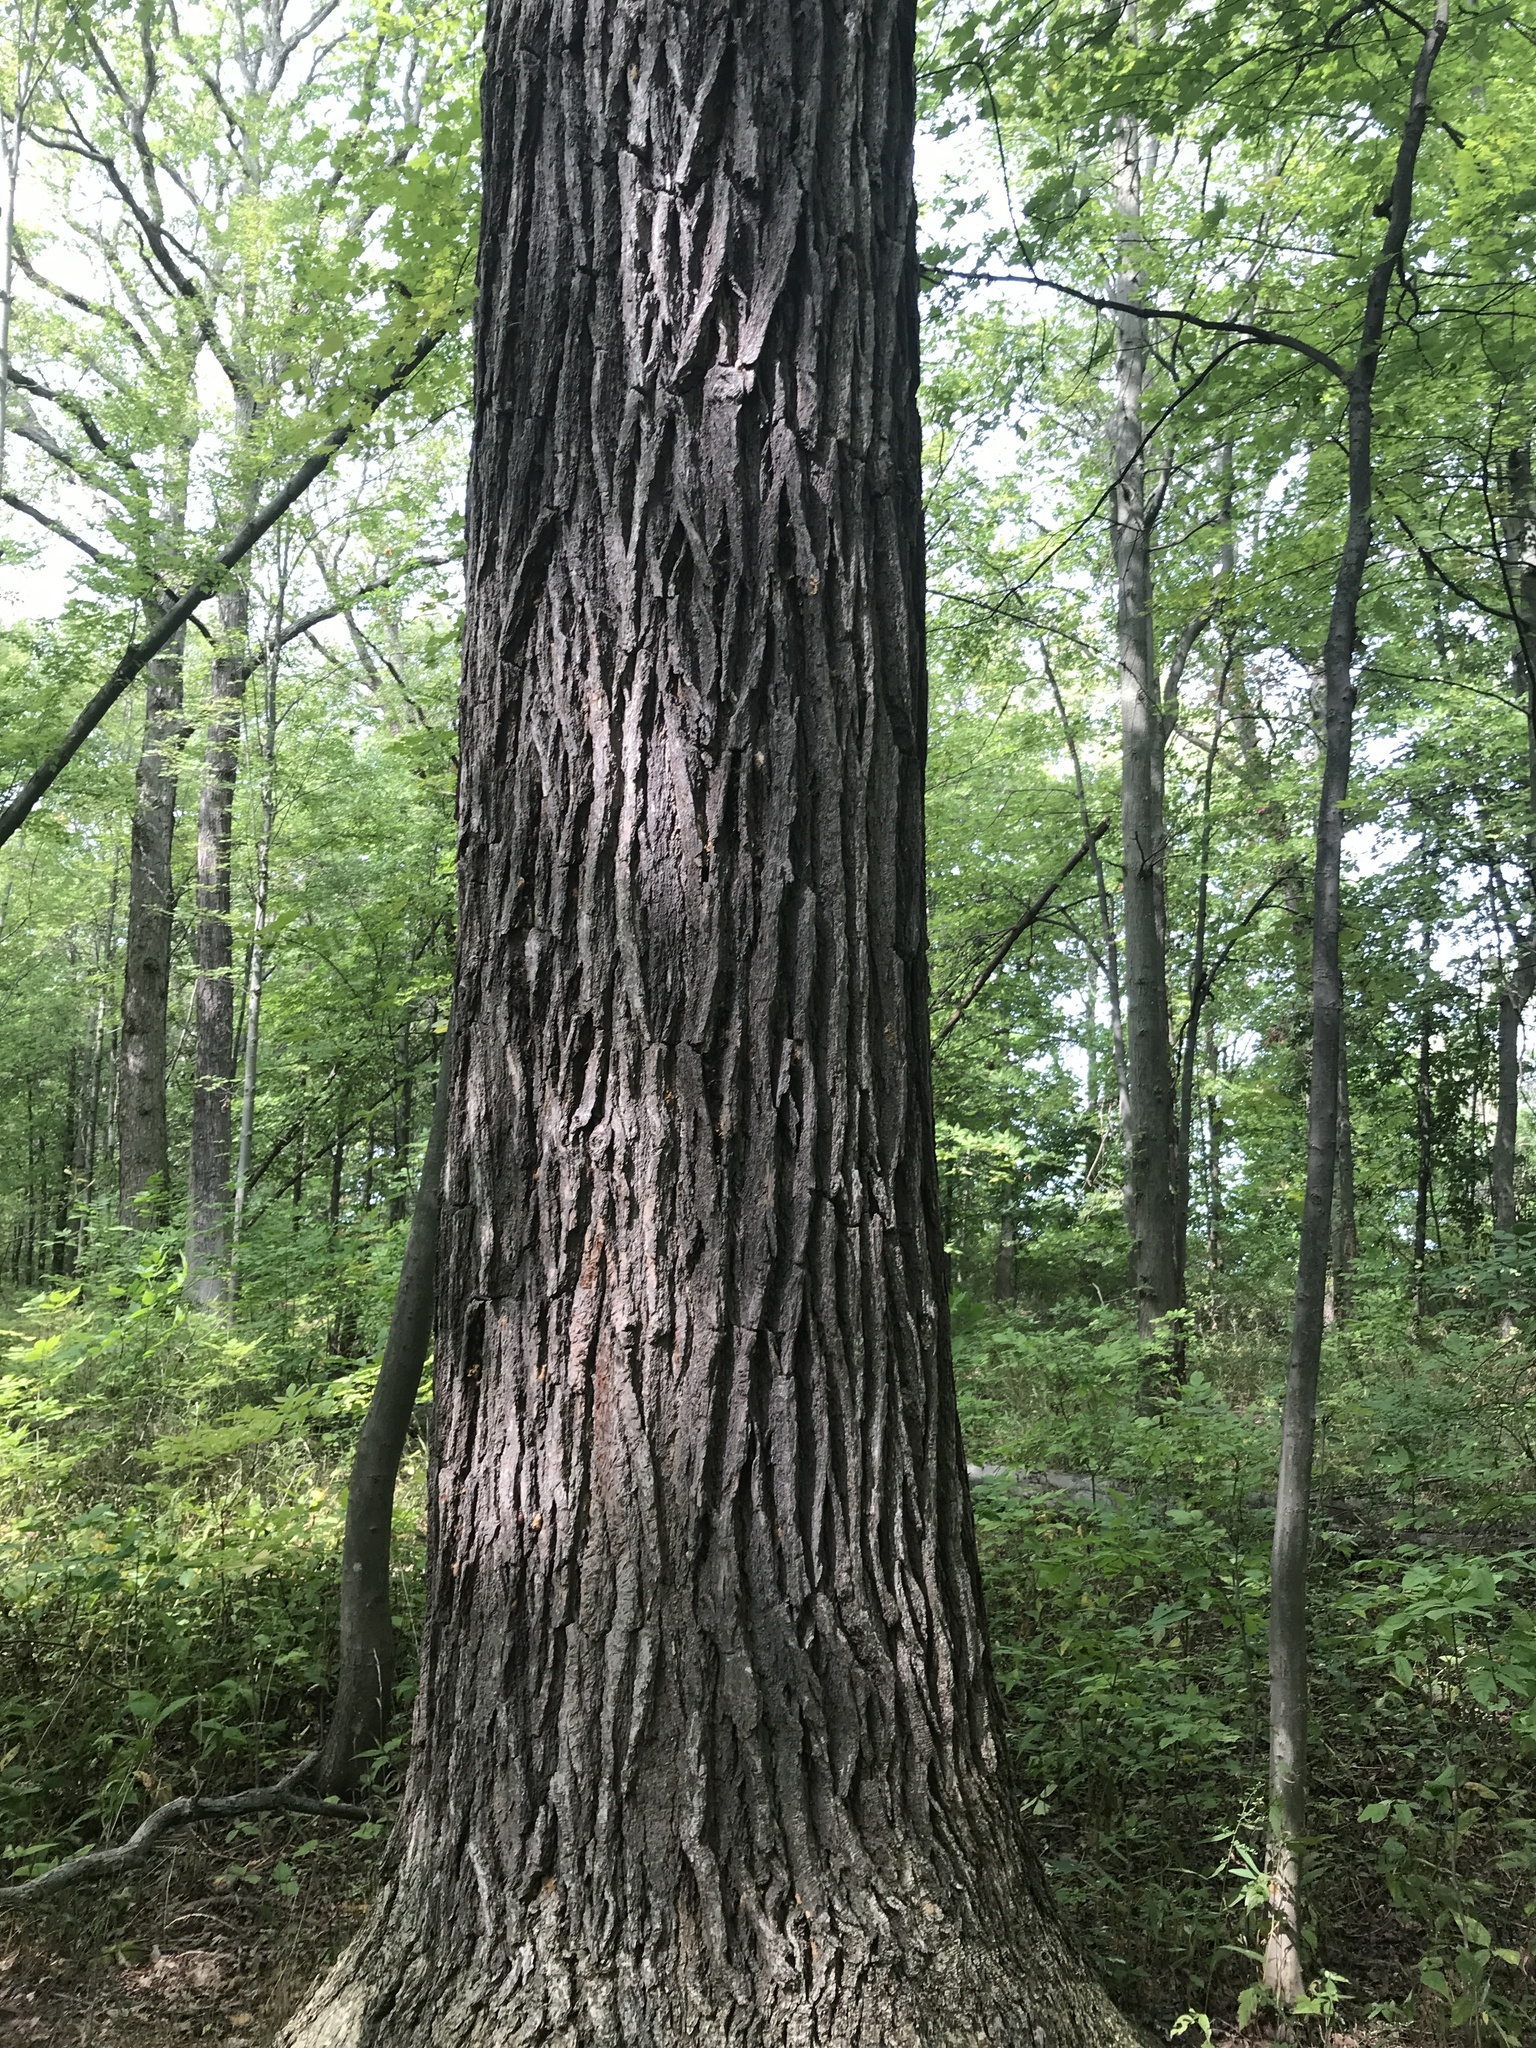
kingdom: Animalia
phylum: Arthropoda
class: Insecta
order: Lepidoptera
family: Erebidae
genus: Lymantria
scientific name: Lymantria dispar
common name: Gypsy moth
